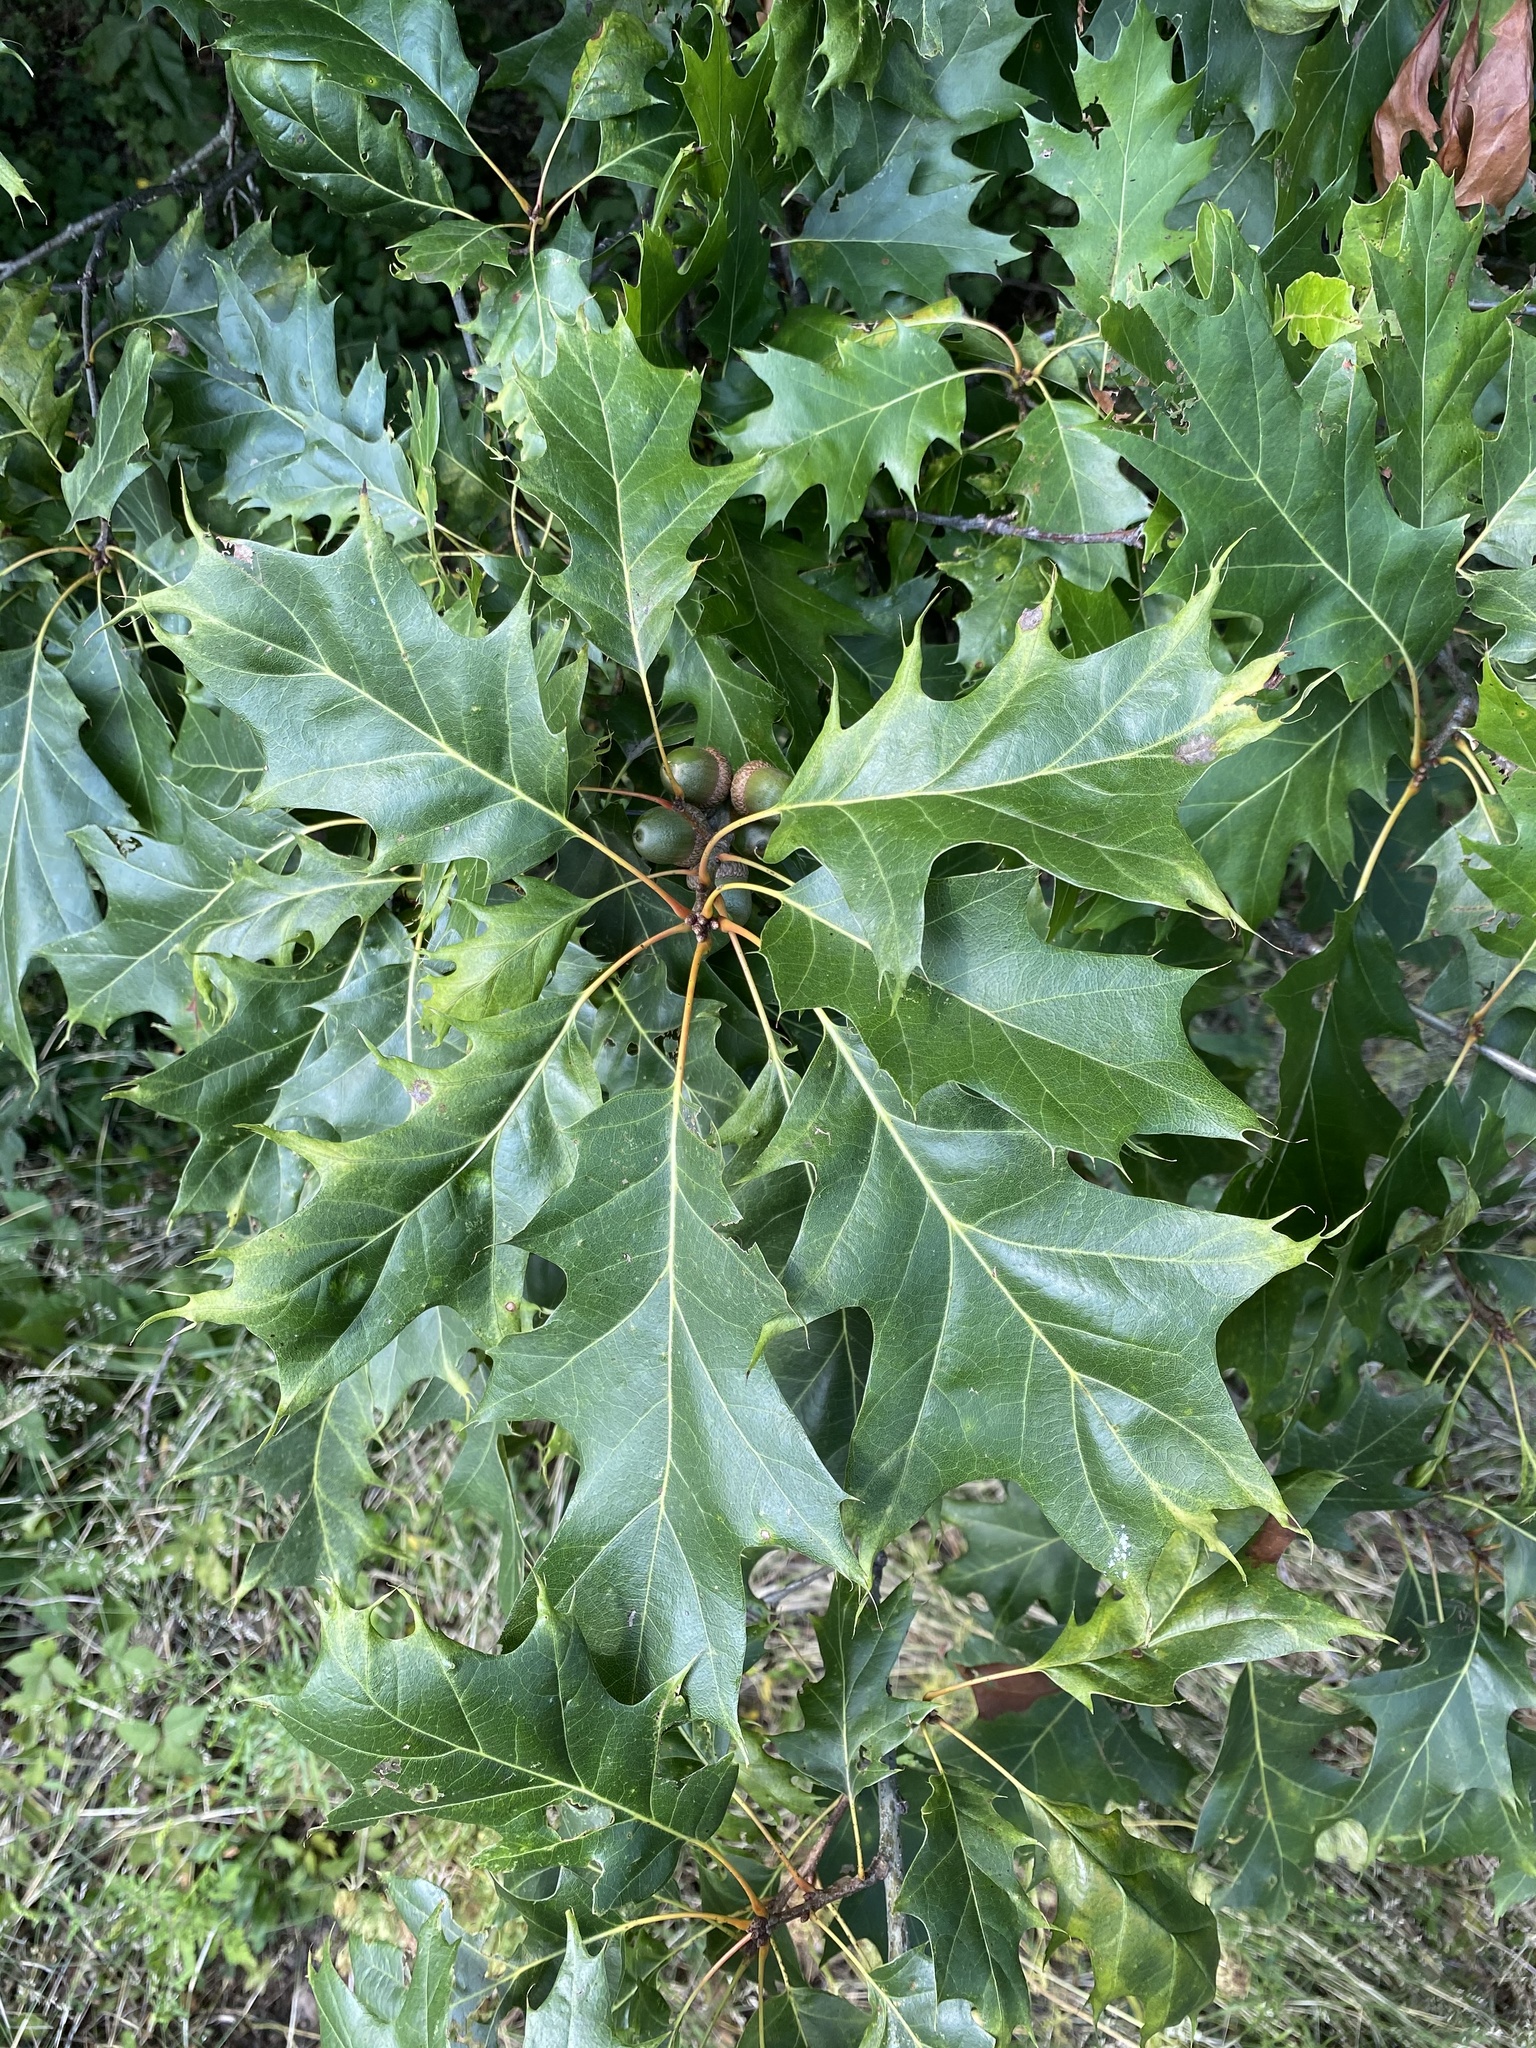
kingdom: Plantae
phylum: Tracheophyta
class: Magnoliopsida
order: Fagales
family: Fagaceae
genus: Quercus
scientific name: Quercus rubra
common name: Red oak
